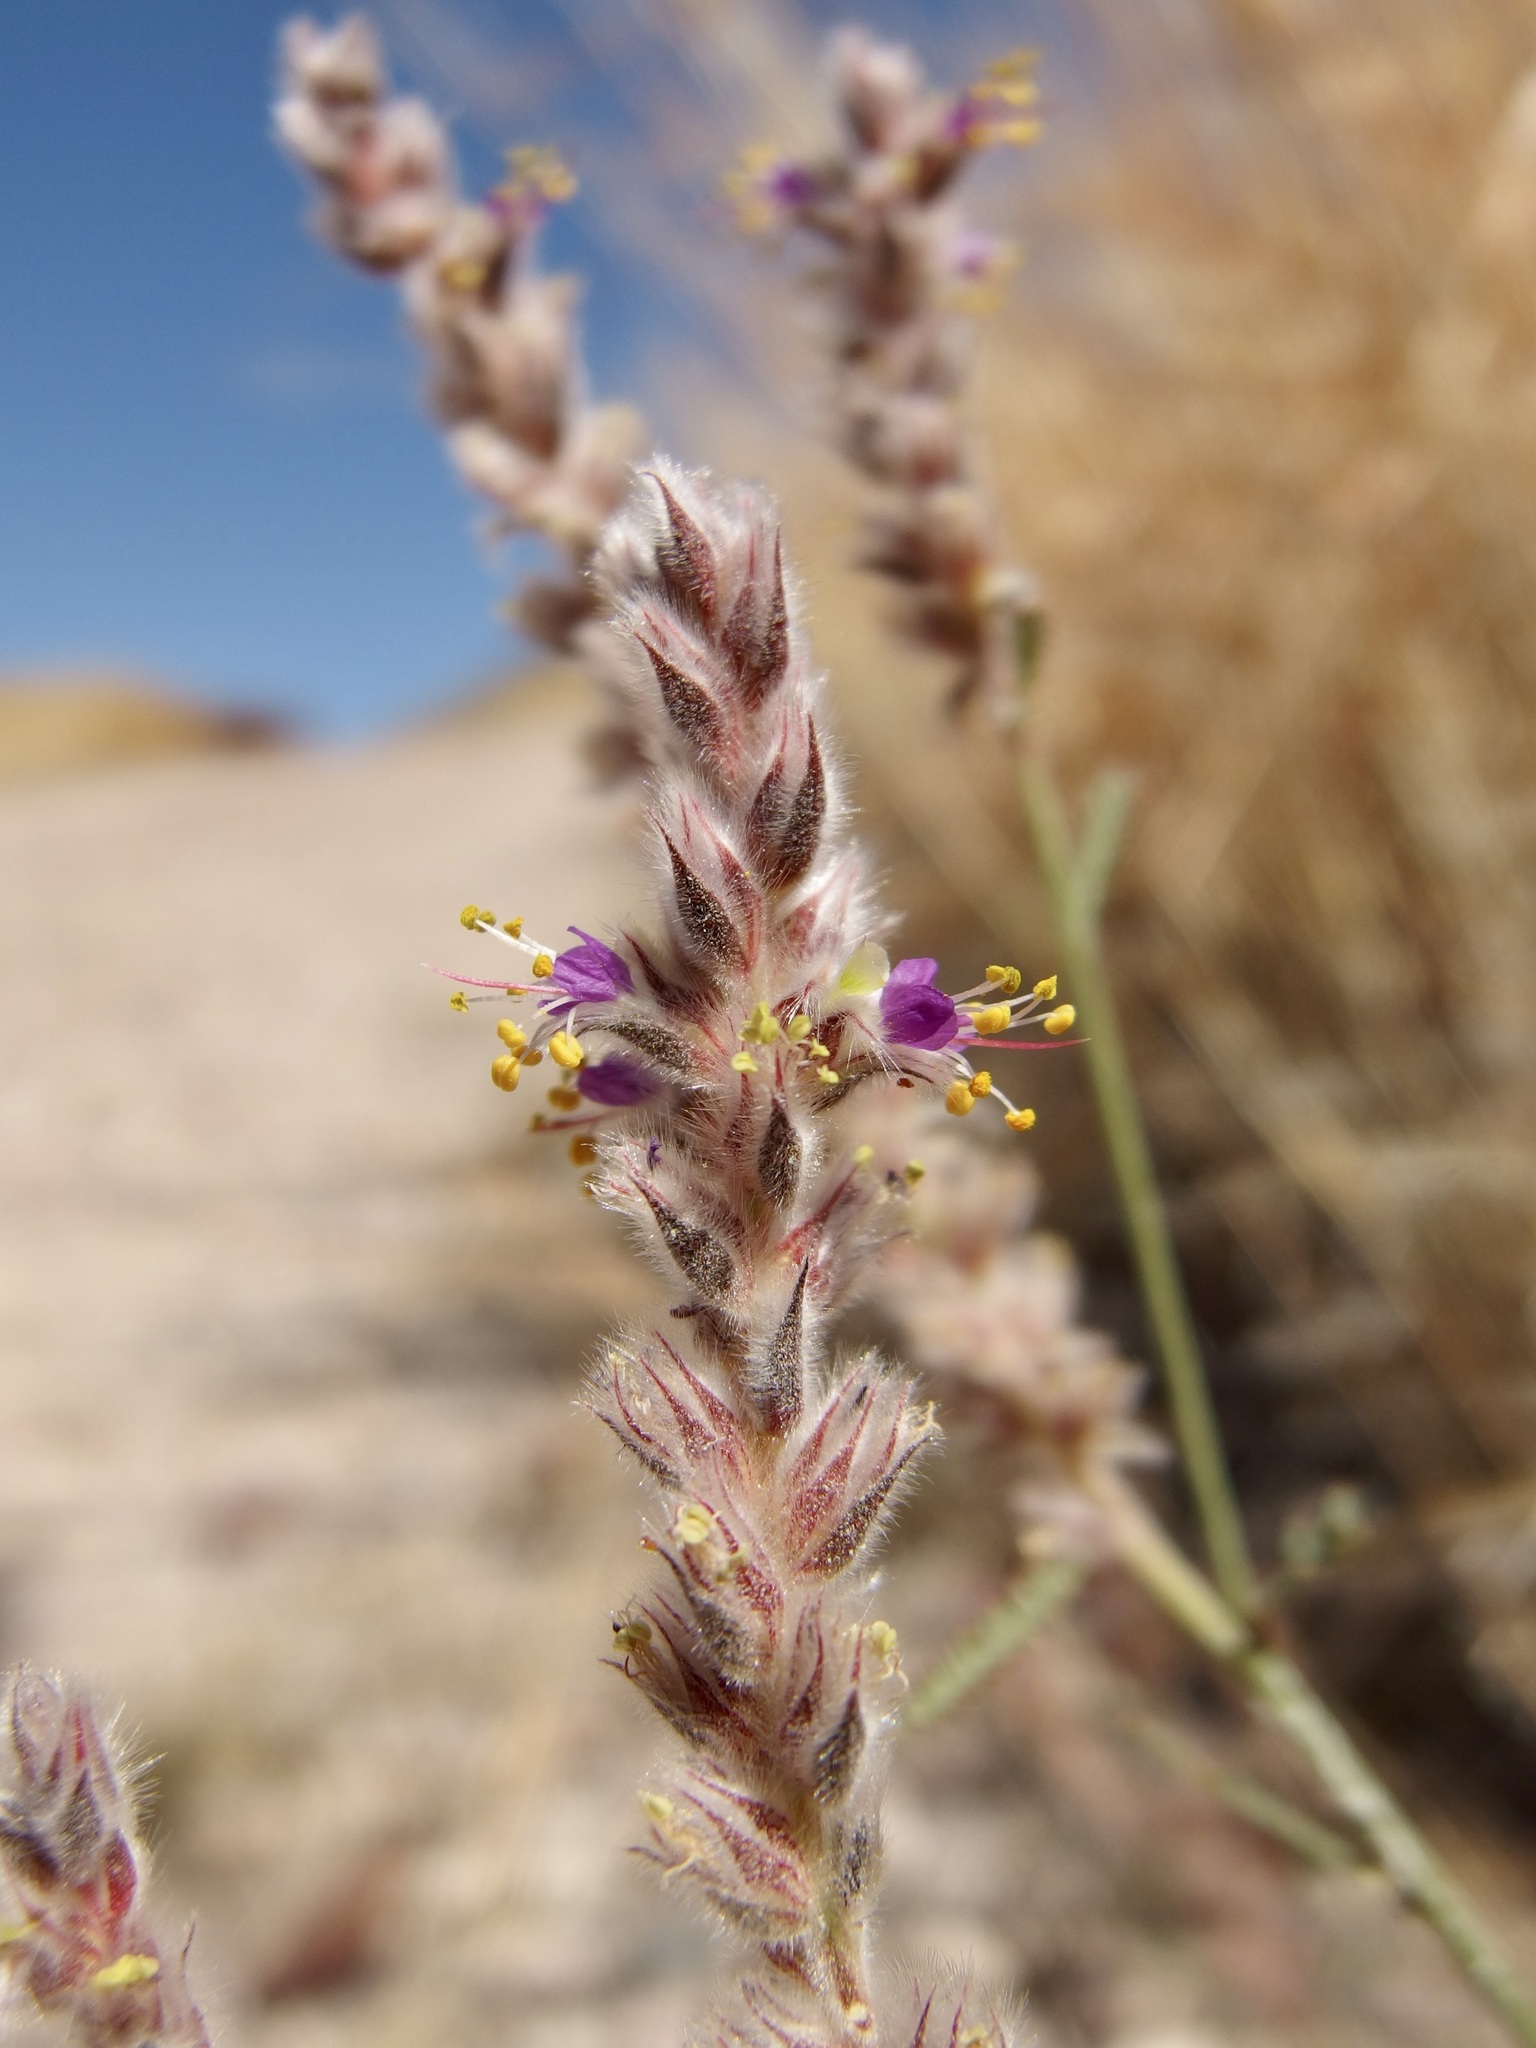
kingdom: Plantae
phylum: Tracheophyta
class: Magnoliopsida
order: Fabales
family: Fabaceae
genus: Dalea
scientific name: Dalea pringlei
